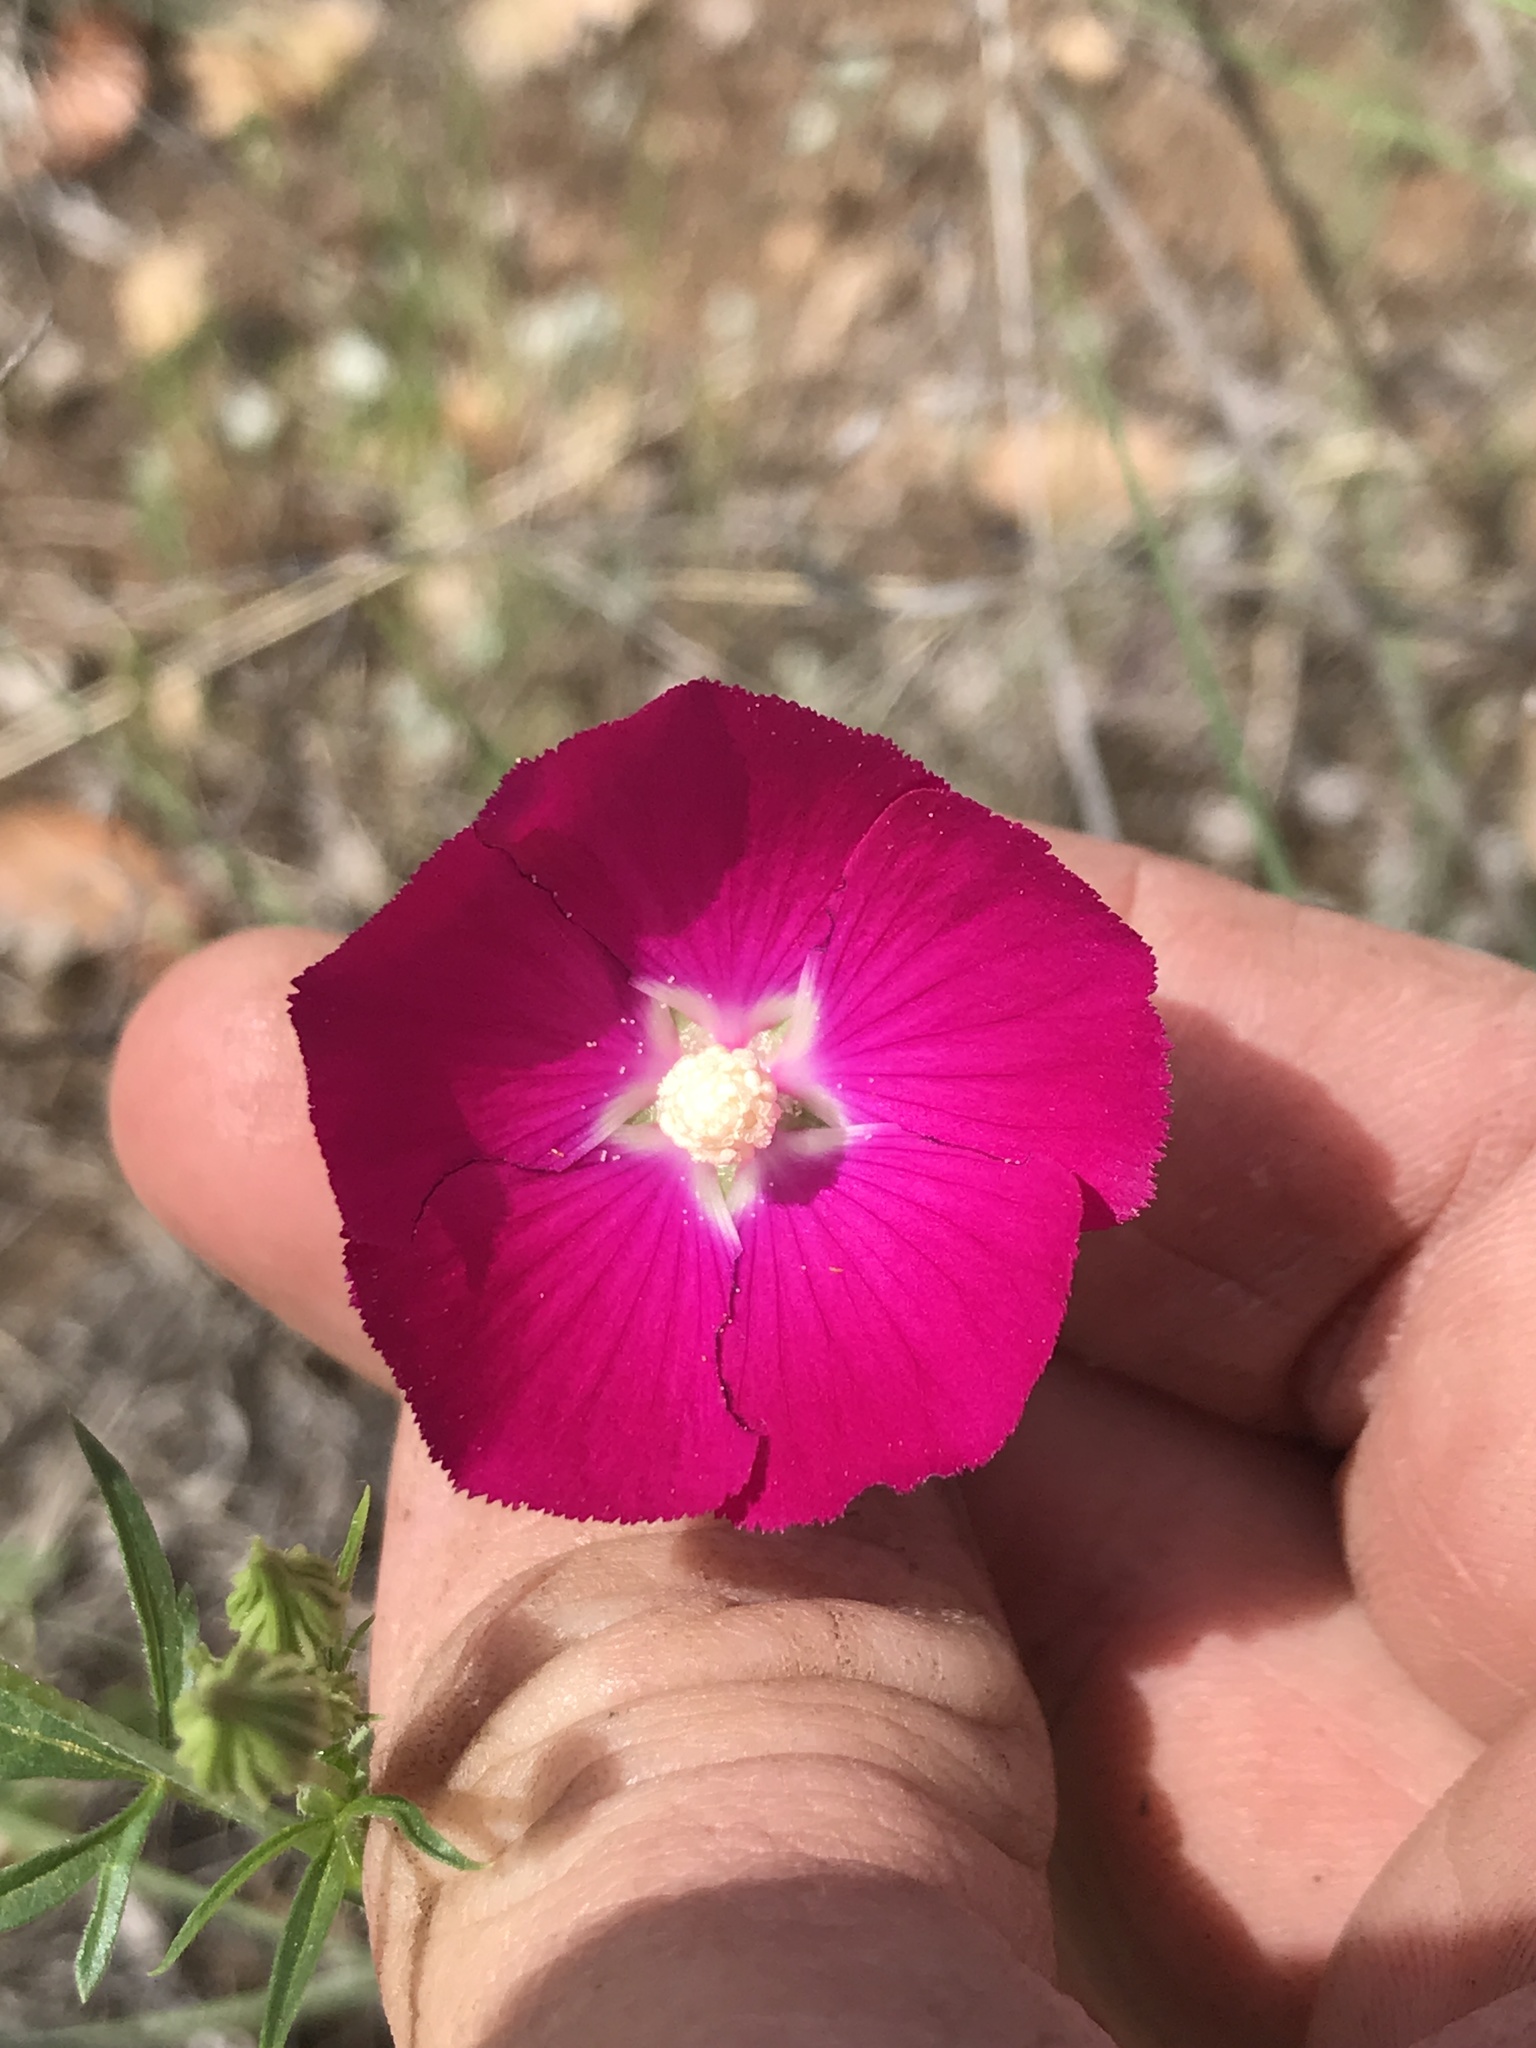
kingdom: Plantae
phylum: Tracheophyta
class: Magnoliopsida
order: Malvales
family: Malvaceae
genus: Callirhoe
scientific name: Callirhoe leiocarpa
